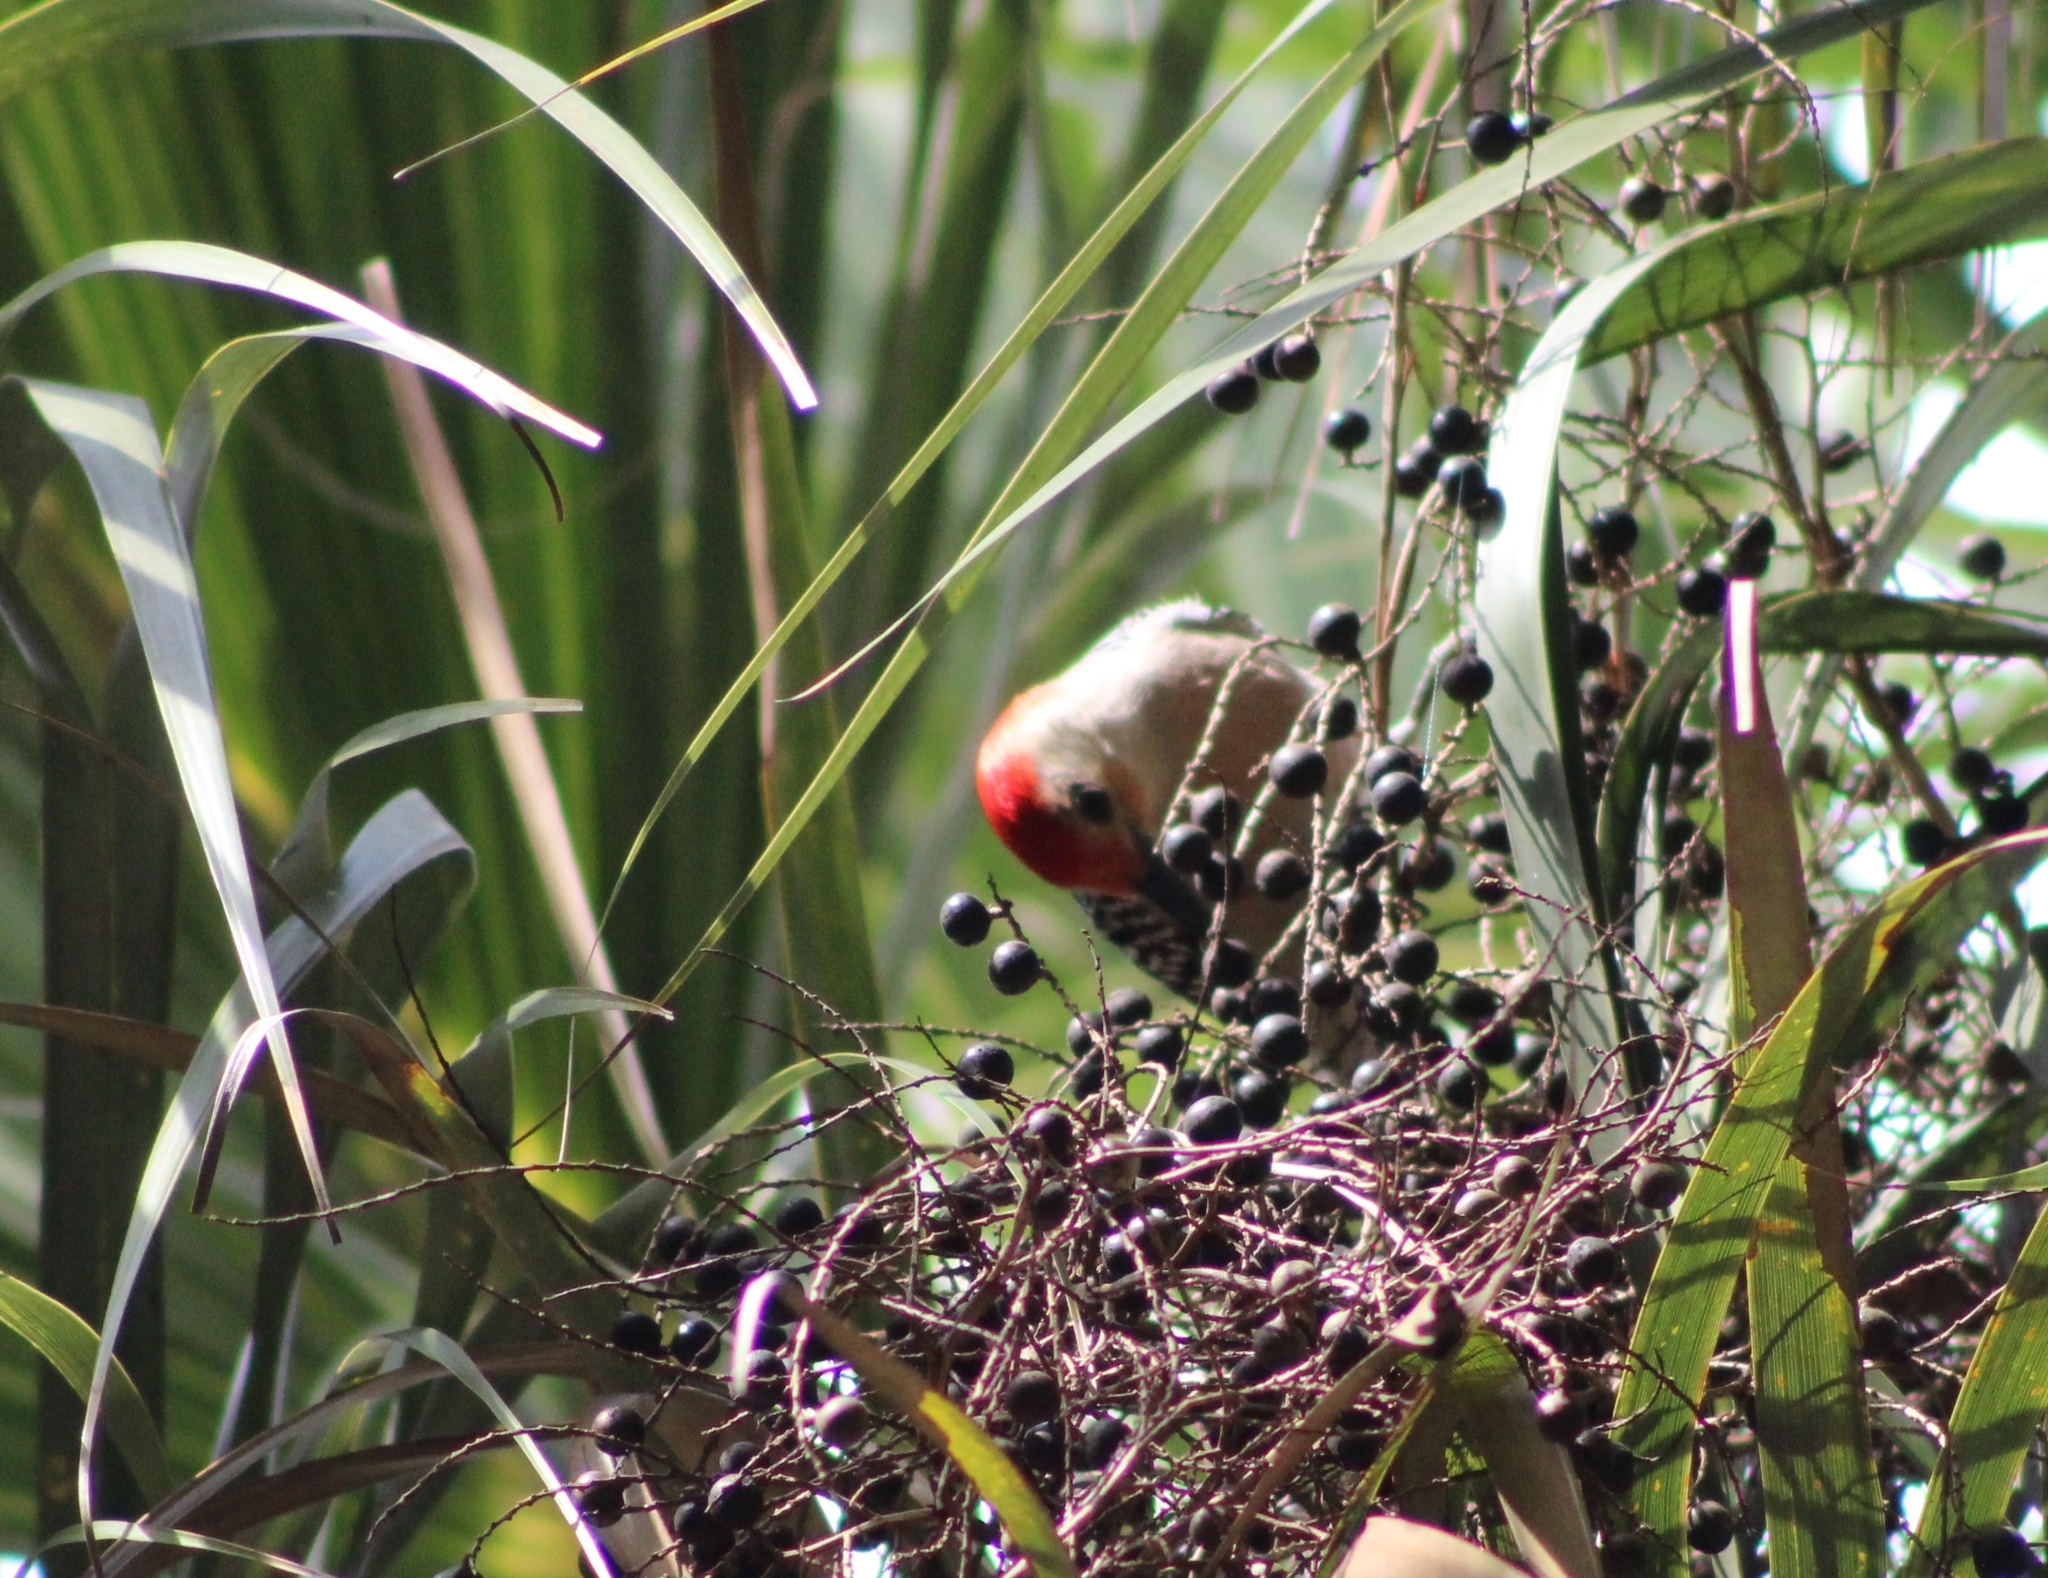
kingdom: Animalia
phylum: Chordata
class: Aves
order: Piciformes
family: Picidae
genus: Melanerpes
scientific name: Melanerpes carolinus
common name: Red-bellied woodpecker
